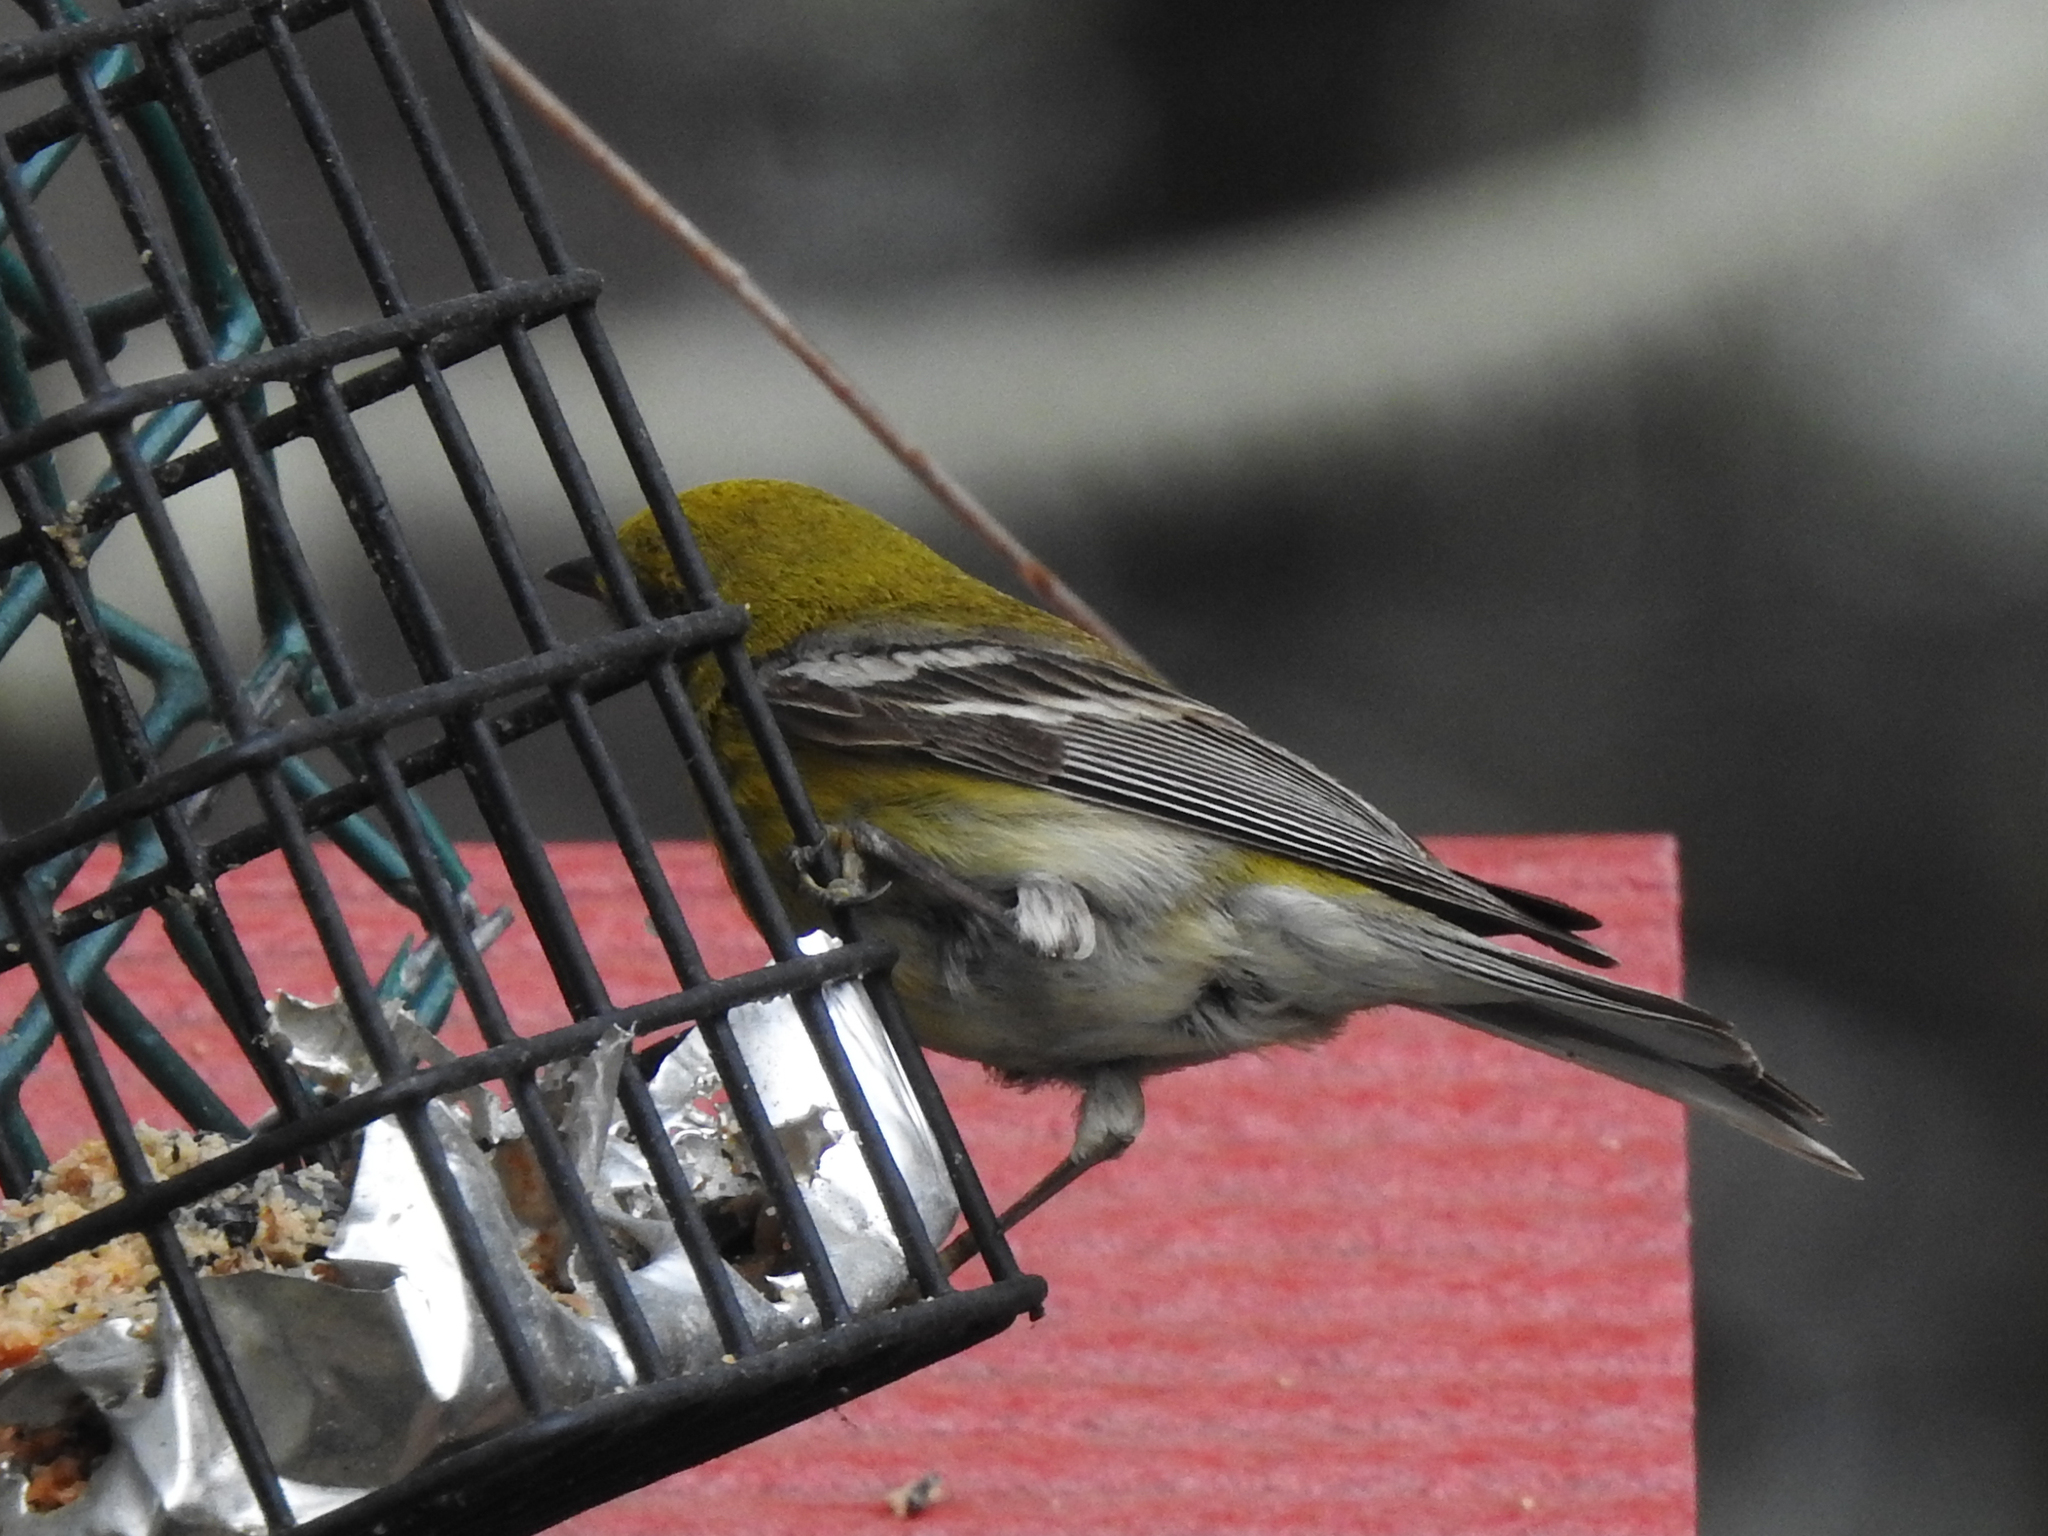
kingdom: Animalia
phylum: Chordata
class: Aves
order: Passeriformes
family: Parulidae
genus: Setophaga
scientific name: Setophaga pinus
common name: Pine warbler
